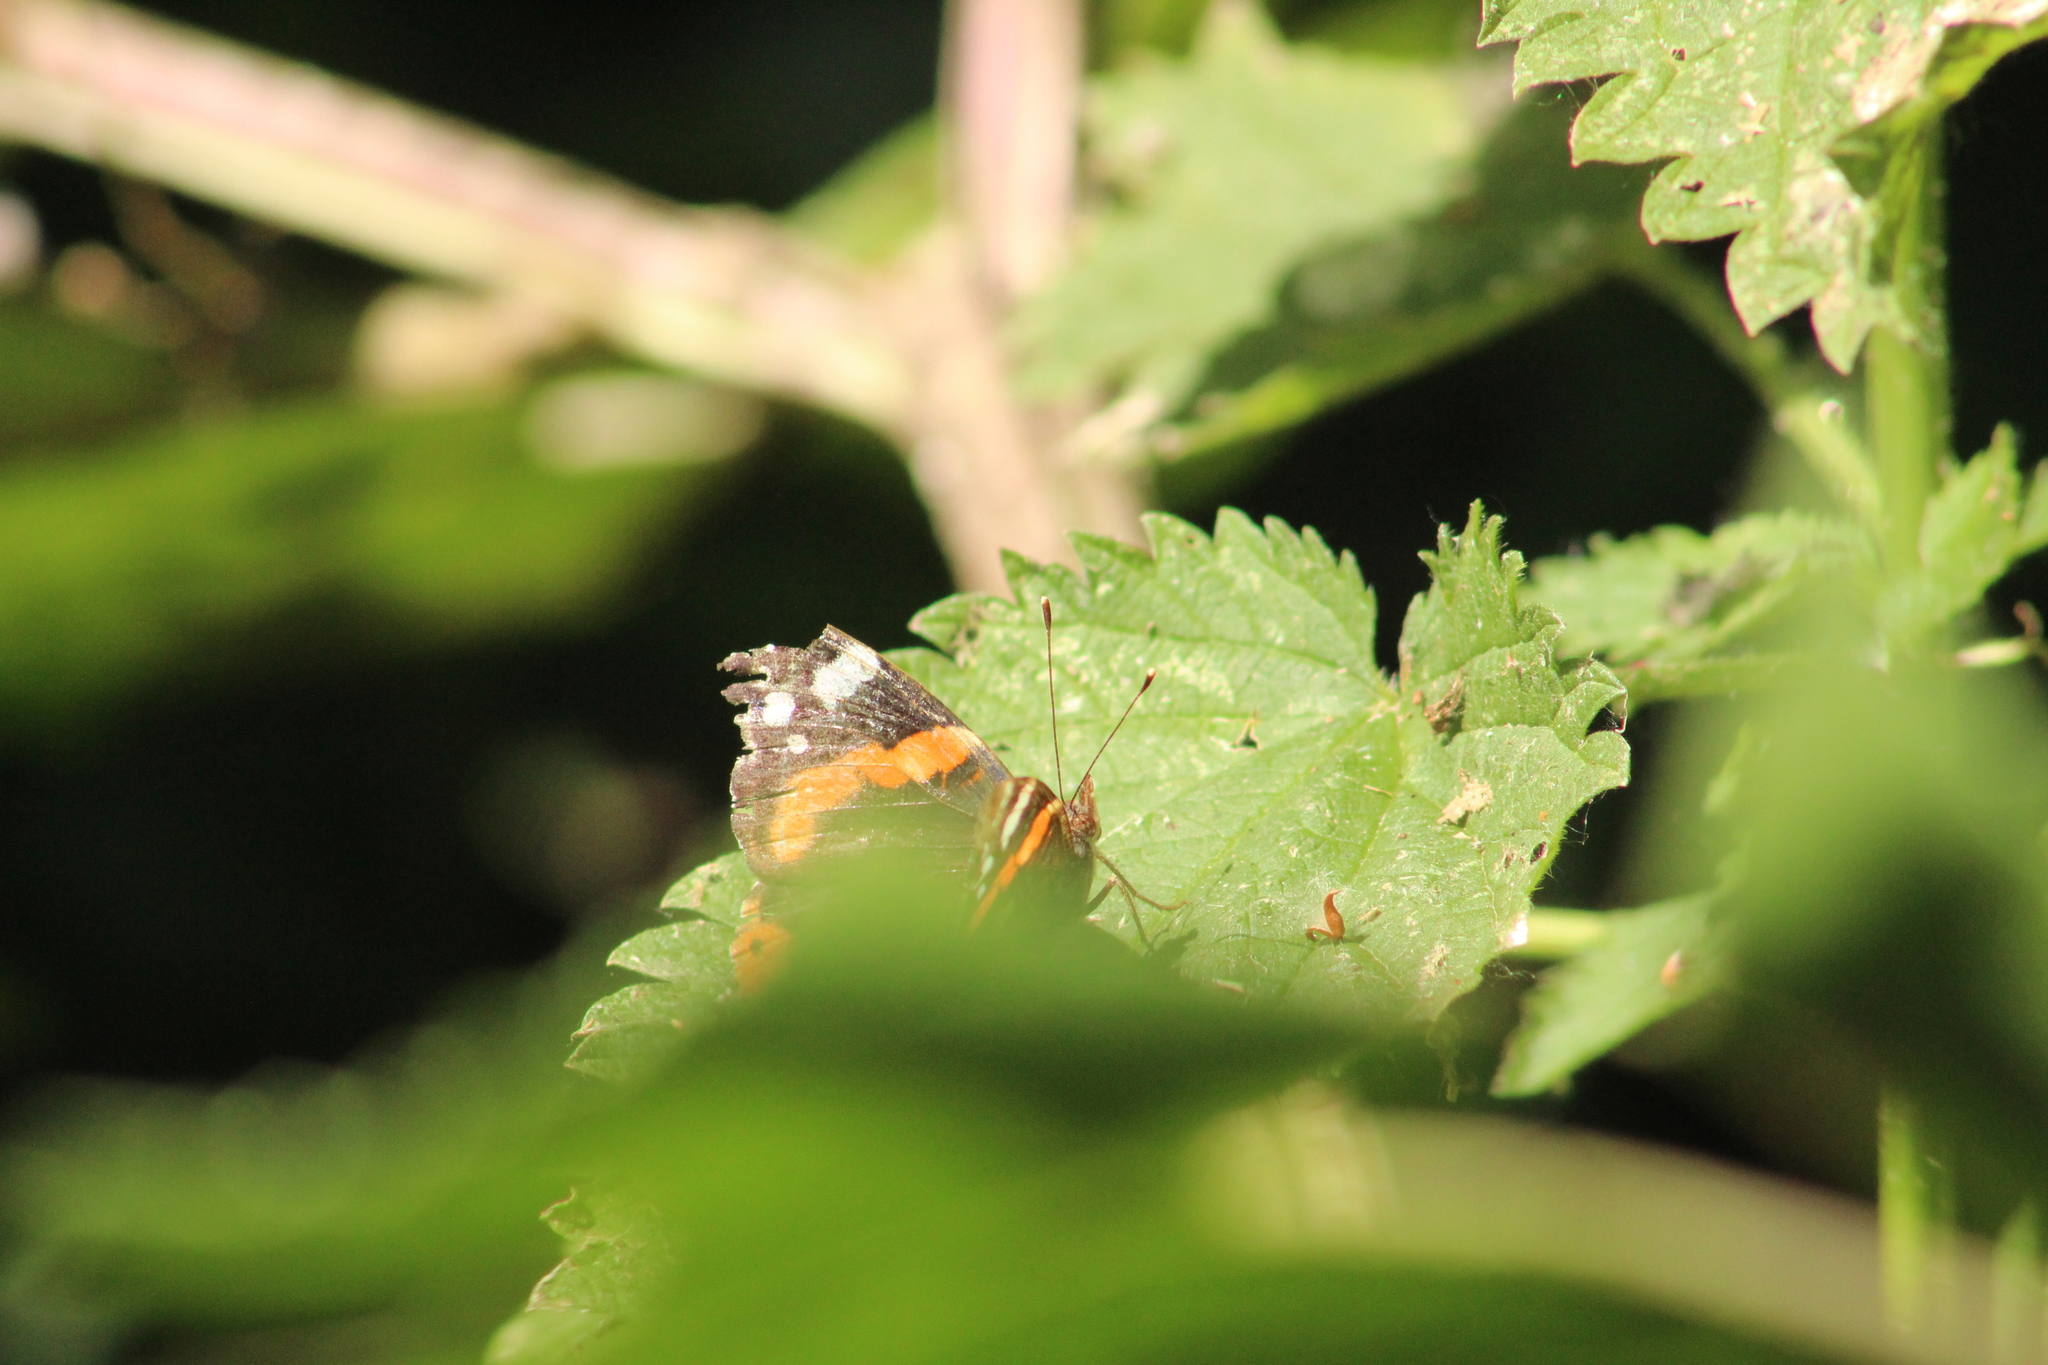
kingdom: Animalia
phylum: Arthropoda
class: Insecta
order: Lepidoptera
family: Nymphalidae
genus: Vanessa
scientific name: Vanessa atalanta
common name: Red admiral
